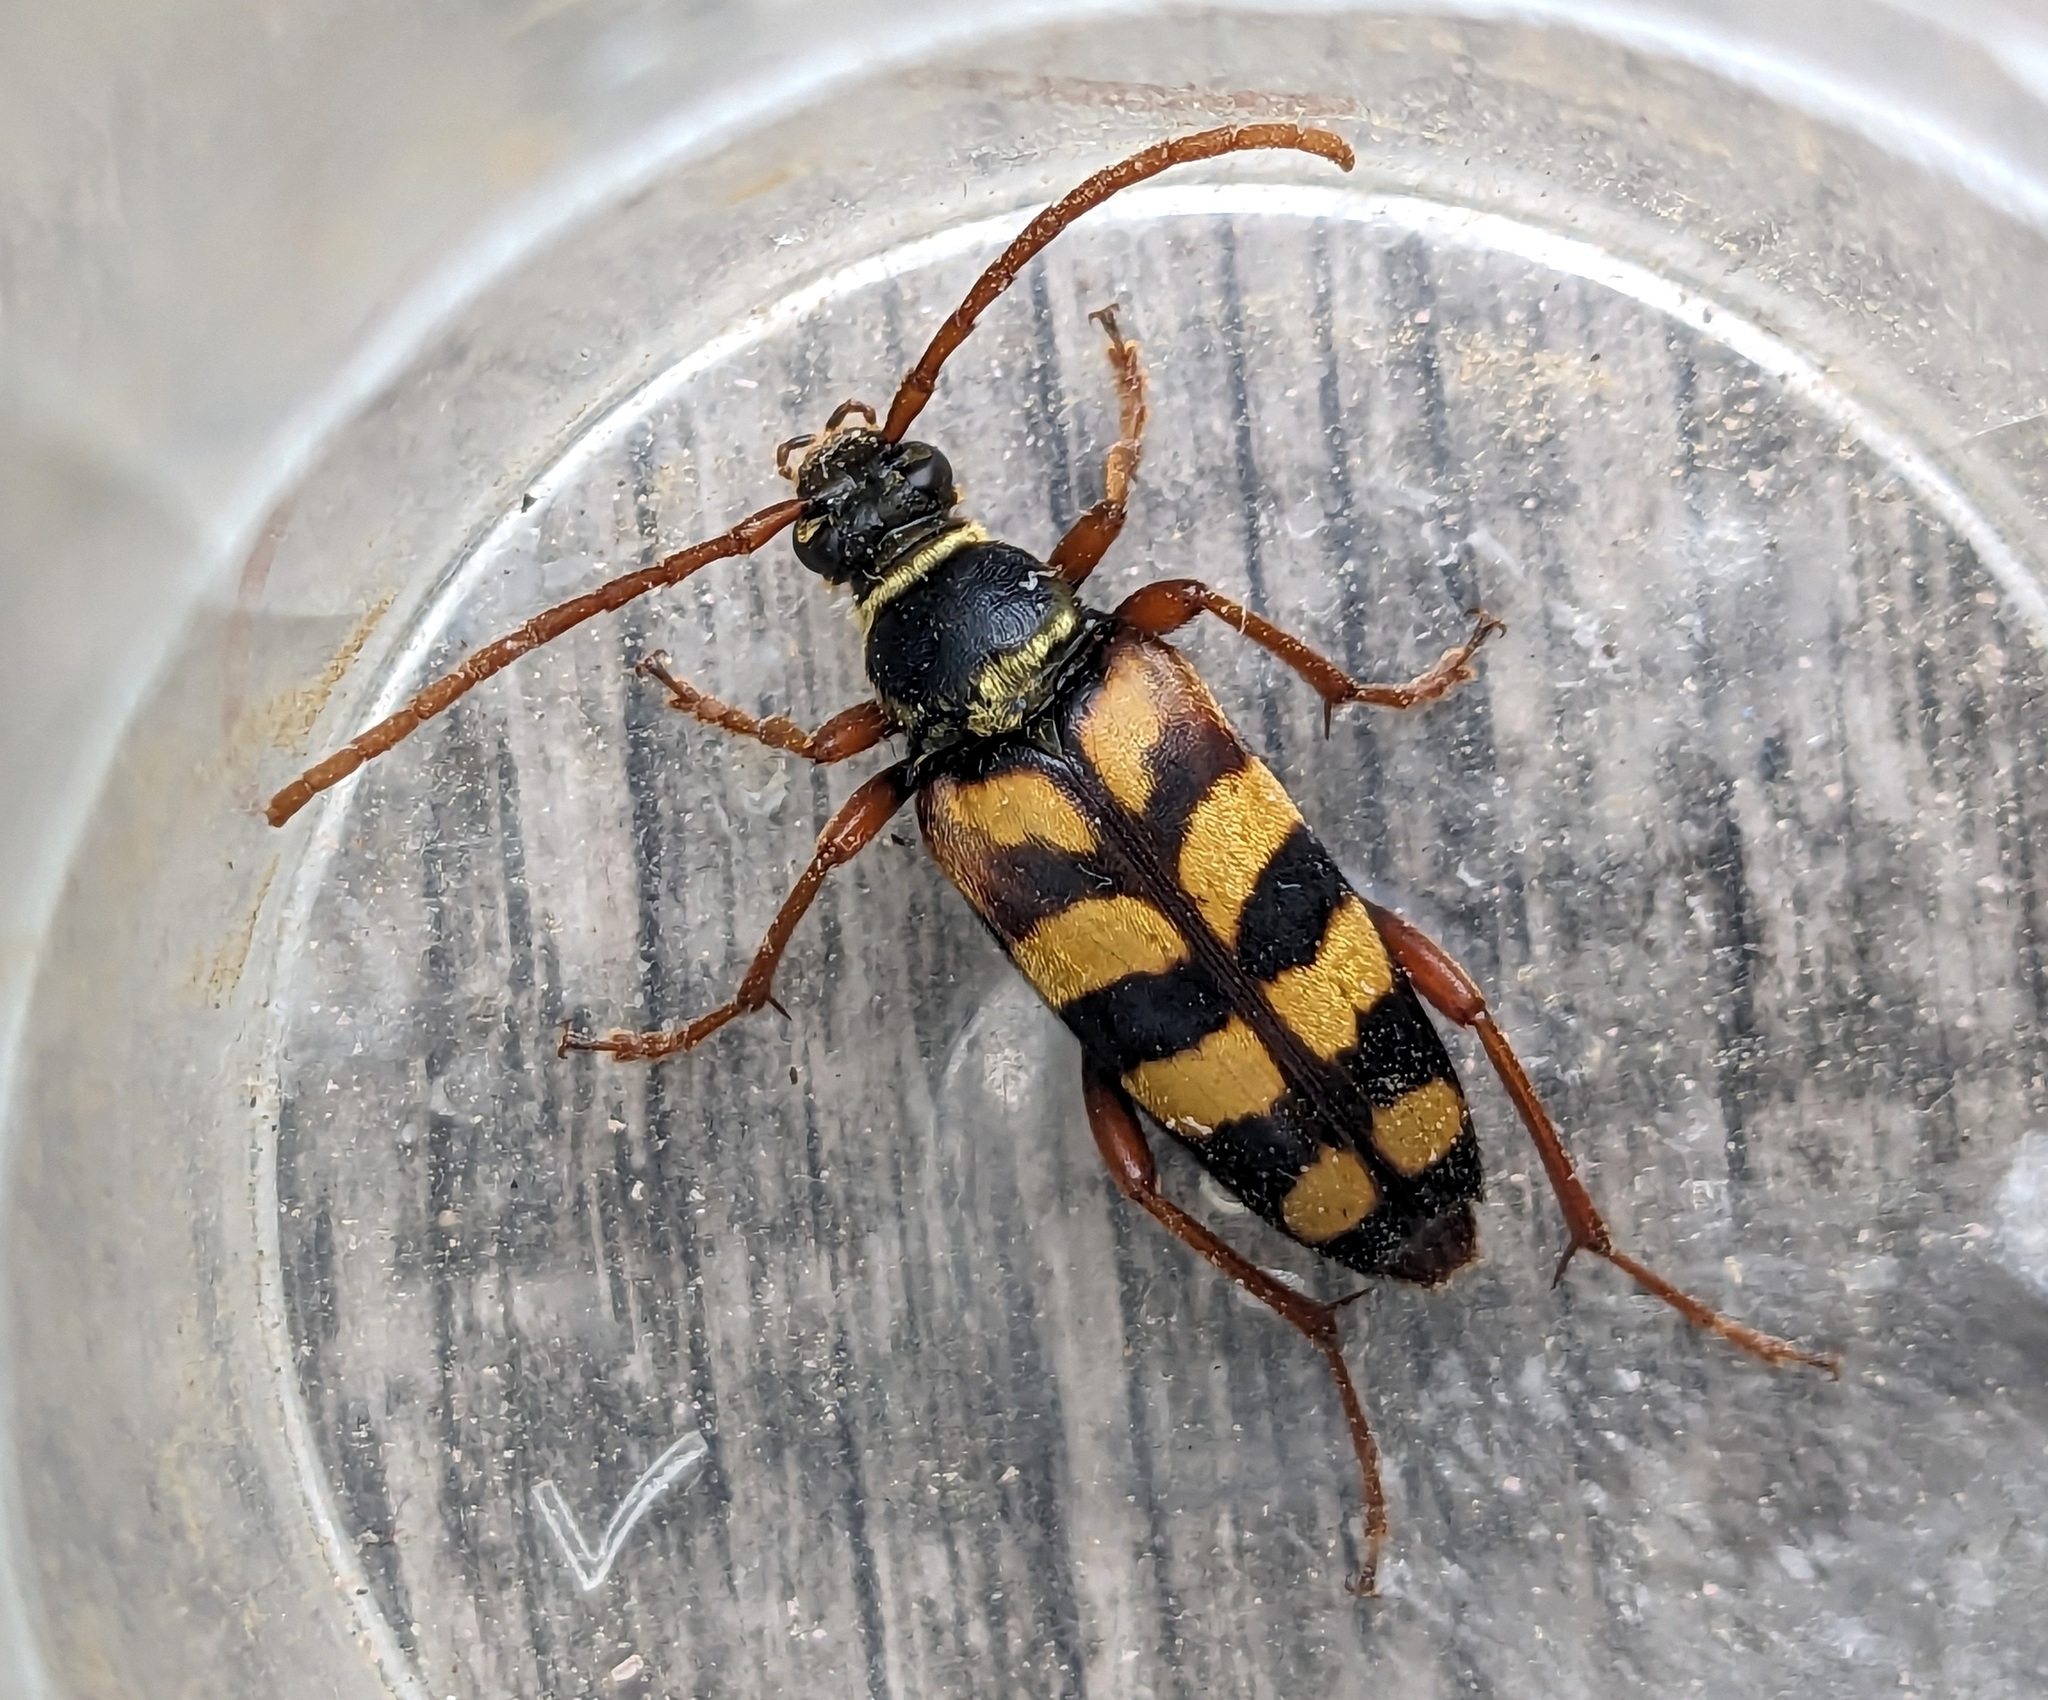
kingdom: Animalia
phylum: Arthropoda
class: Insecta
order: Coleoptera
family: Cerambycidae
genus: Leptura
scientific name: Leptura aurulenta
